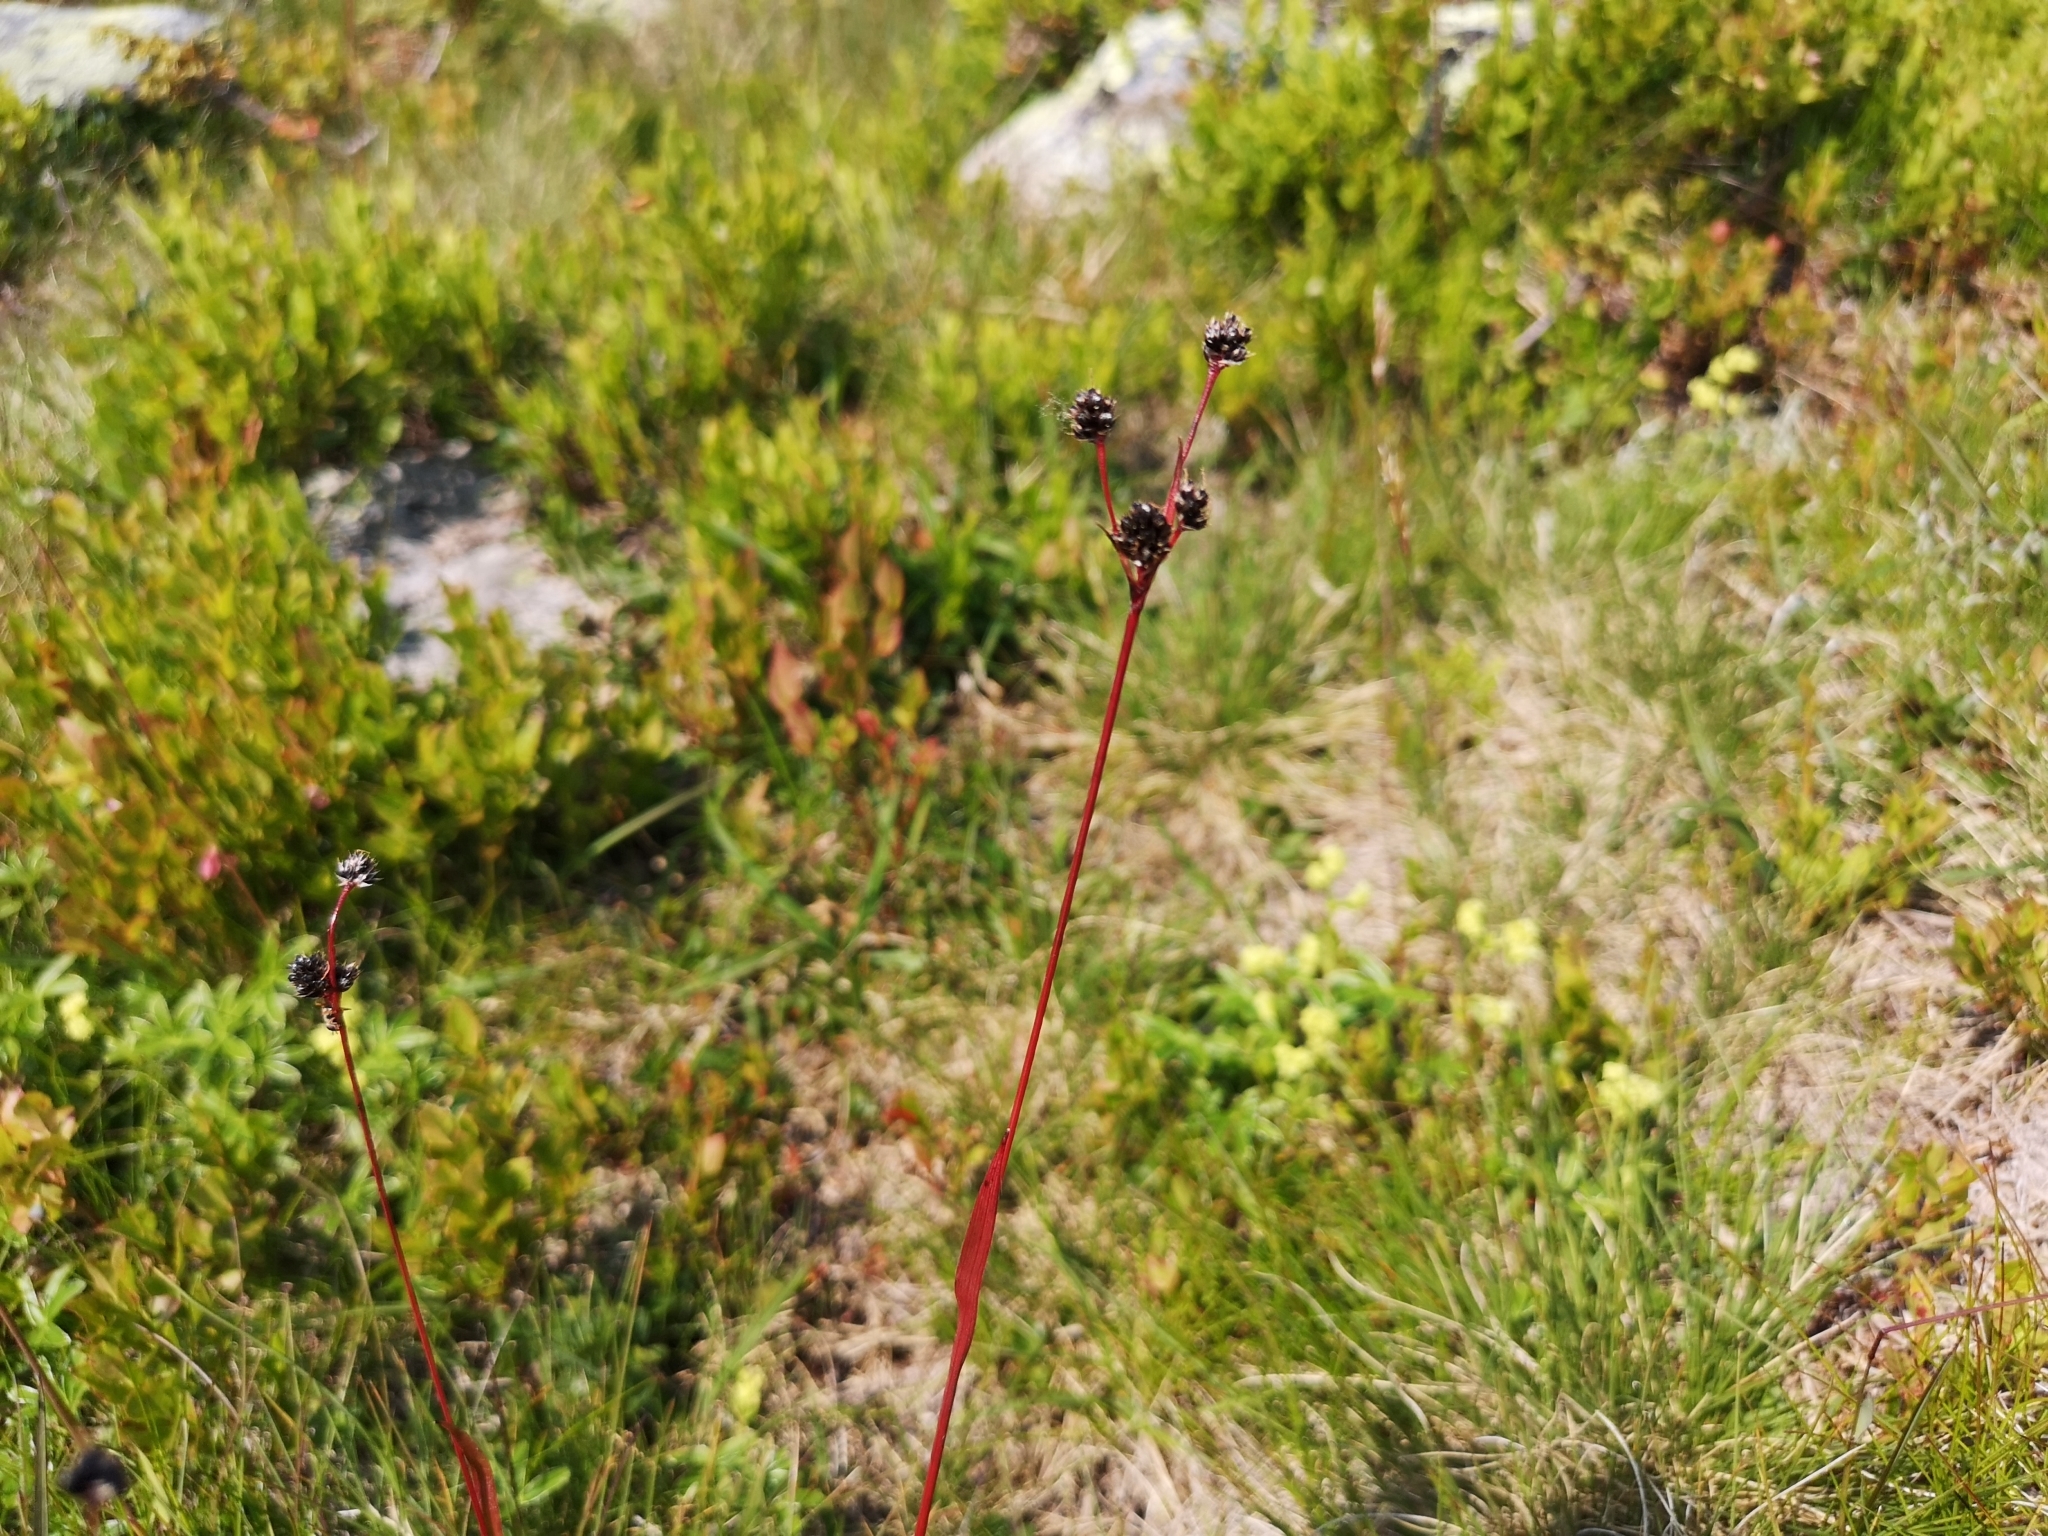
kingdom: Plantae
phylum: Tracheophyta
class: Liliopsida
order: Poales
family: Juncaceae
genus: Luzula
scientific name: Luzula multiflora
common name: Heath wood-rush
